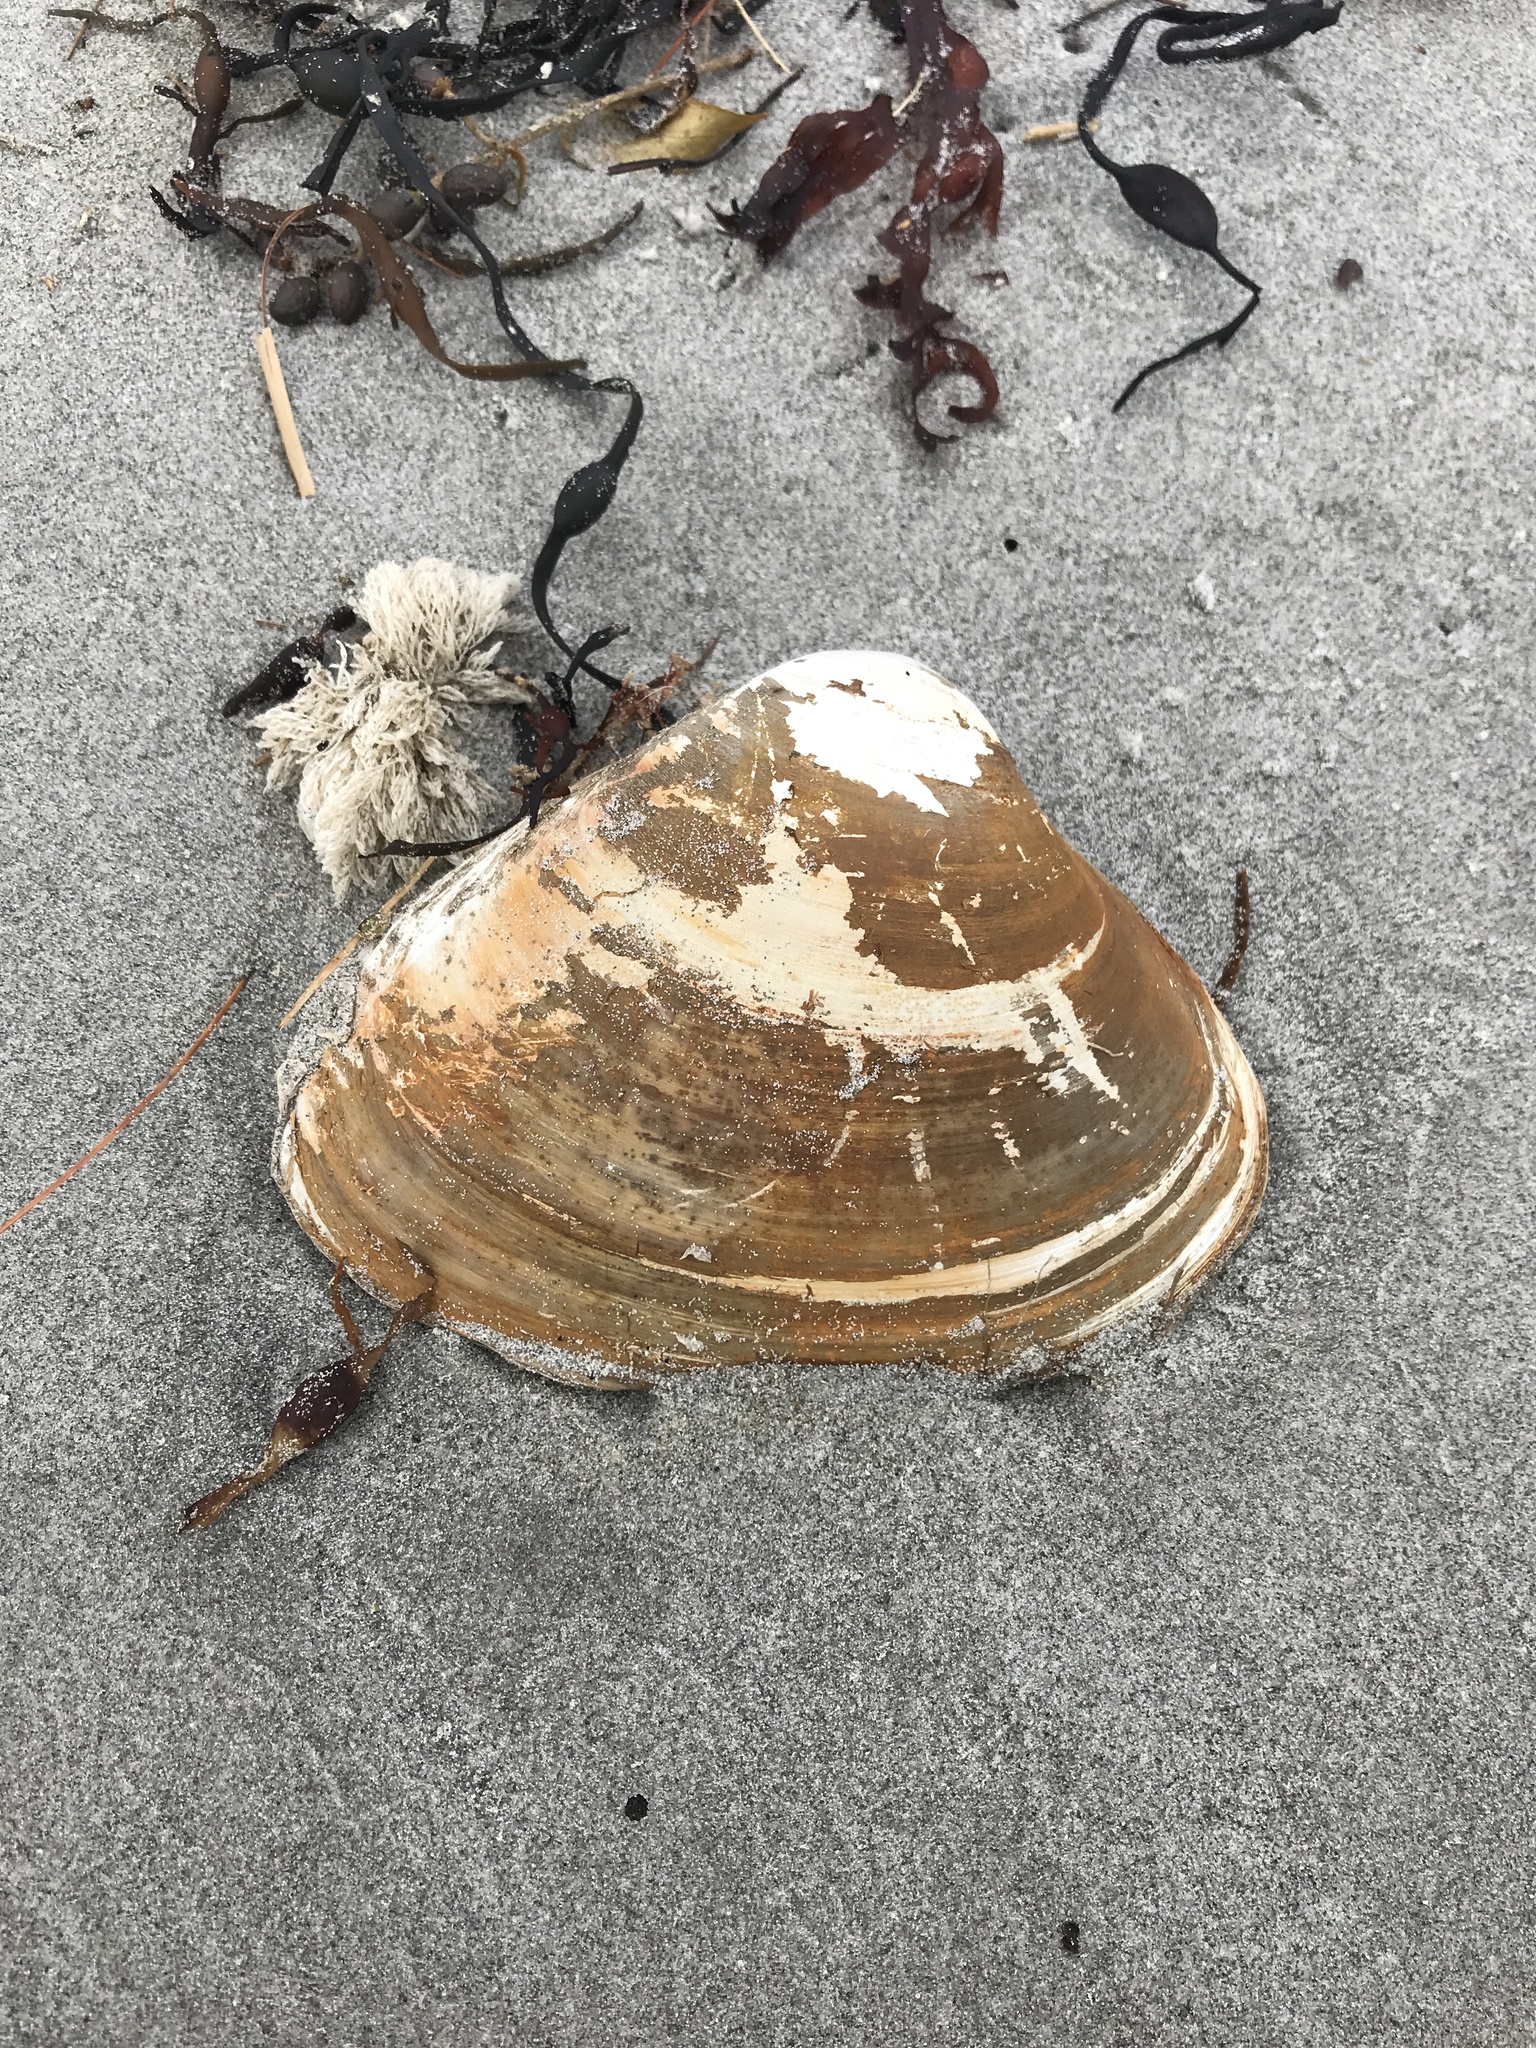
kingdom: Animalia
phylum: Mollusca
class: Bivalvia
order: Venerida
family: Mactridae
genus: Spisula
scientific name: Spisula solidissima
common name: Atlantic surf clam
